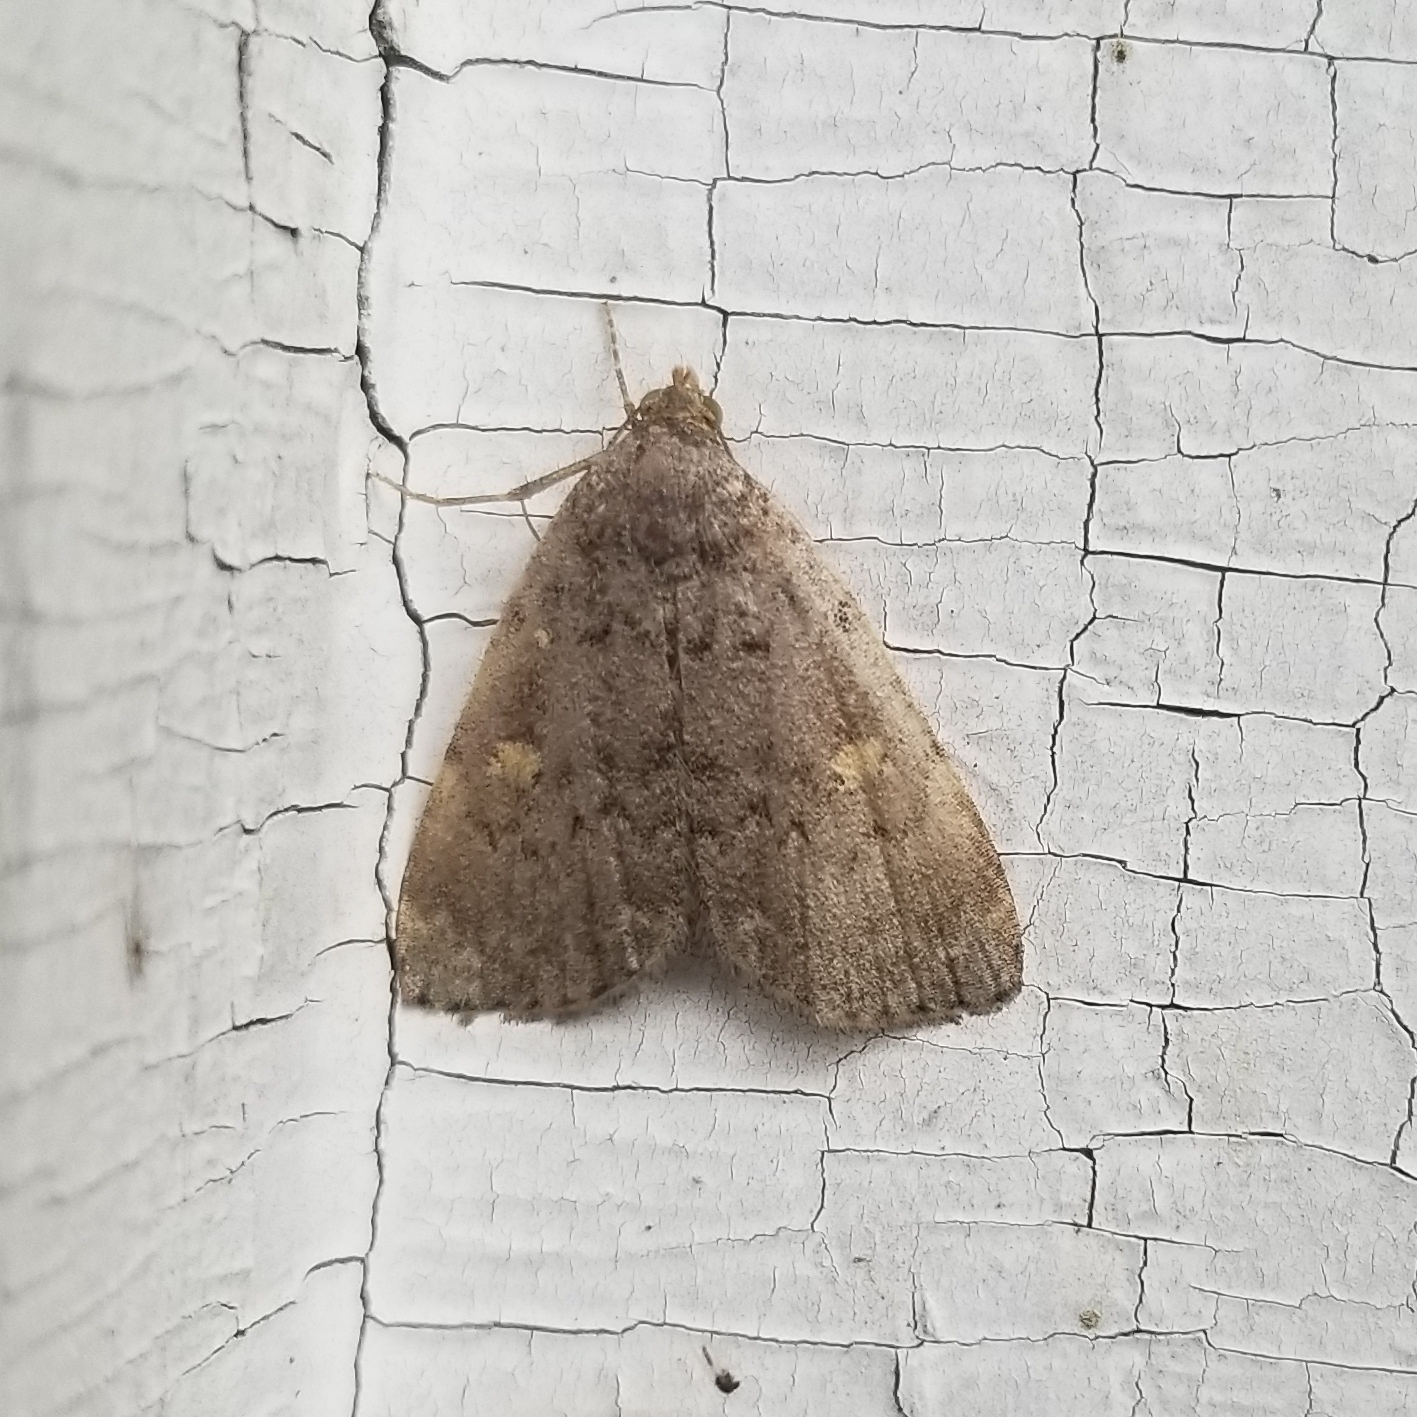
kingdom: Animalia
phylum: Arthropoda
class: Insecta
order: Lepidoptera
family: Erebidae
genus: Idia
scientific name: Idia aemula
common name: Common idia moth
